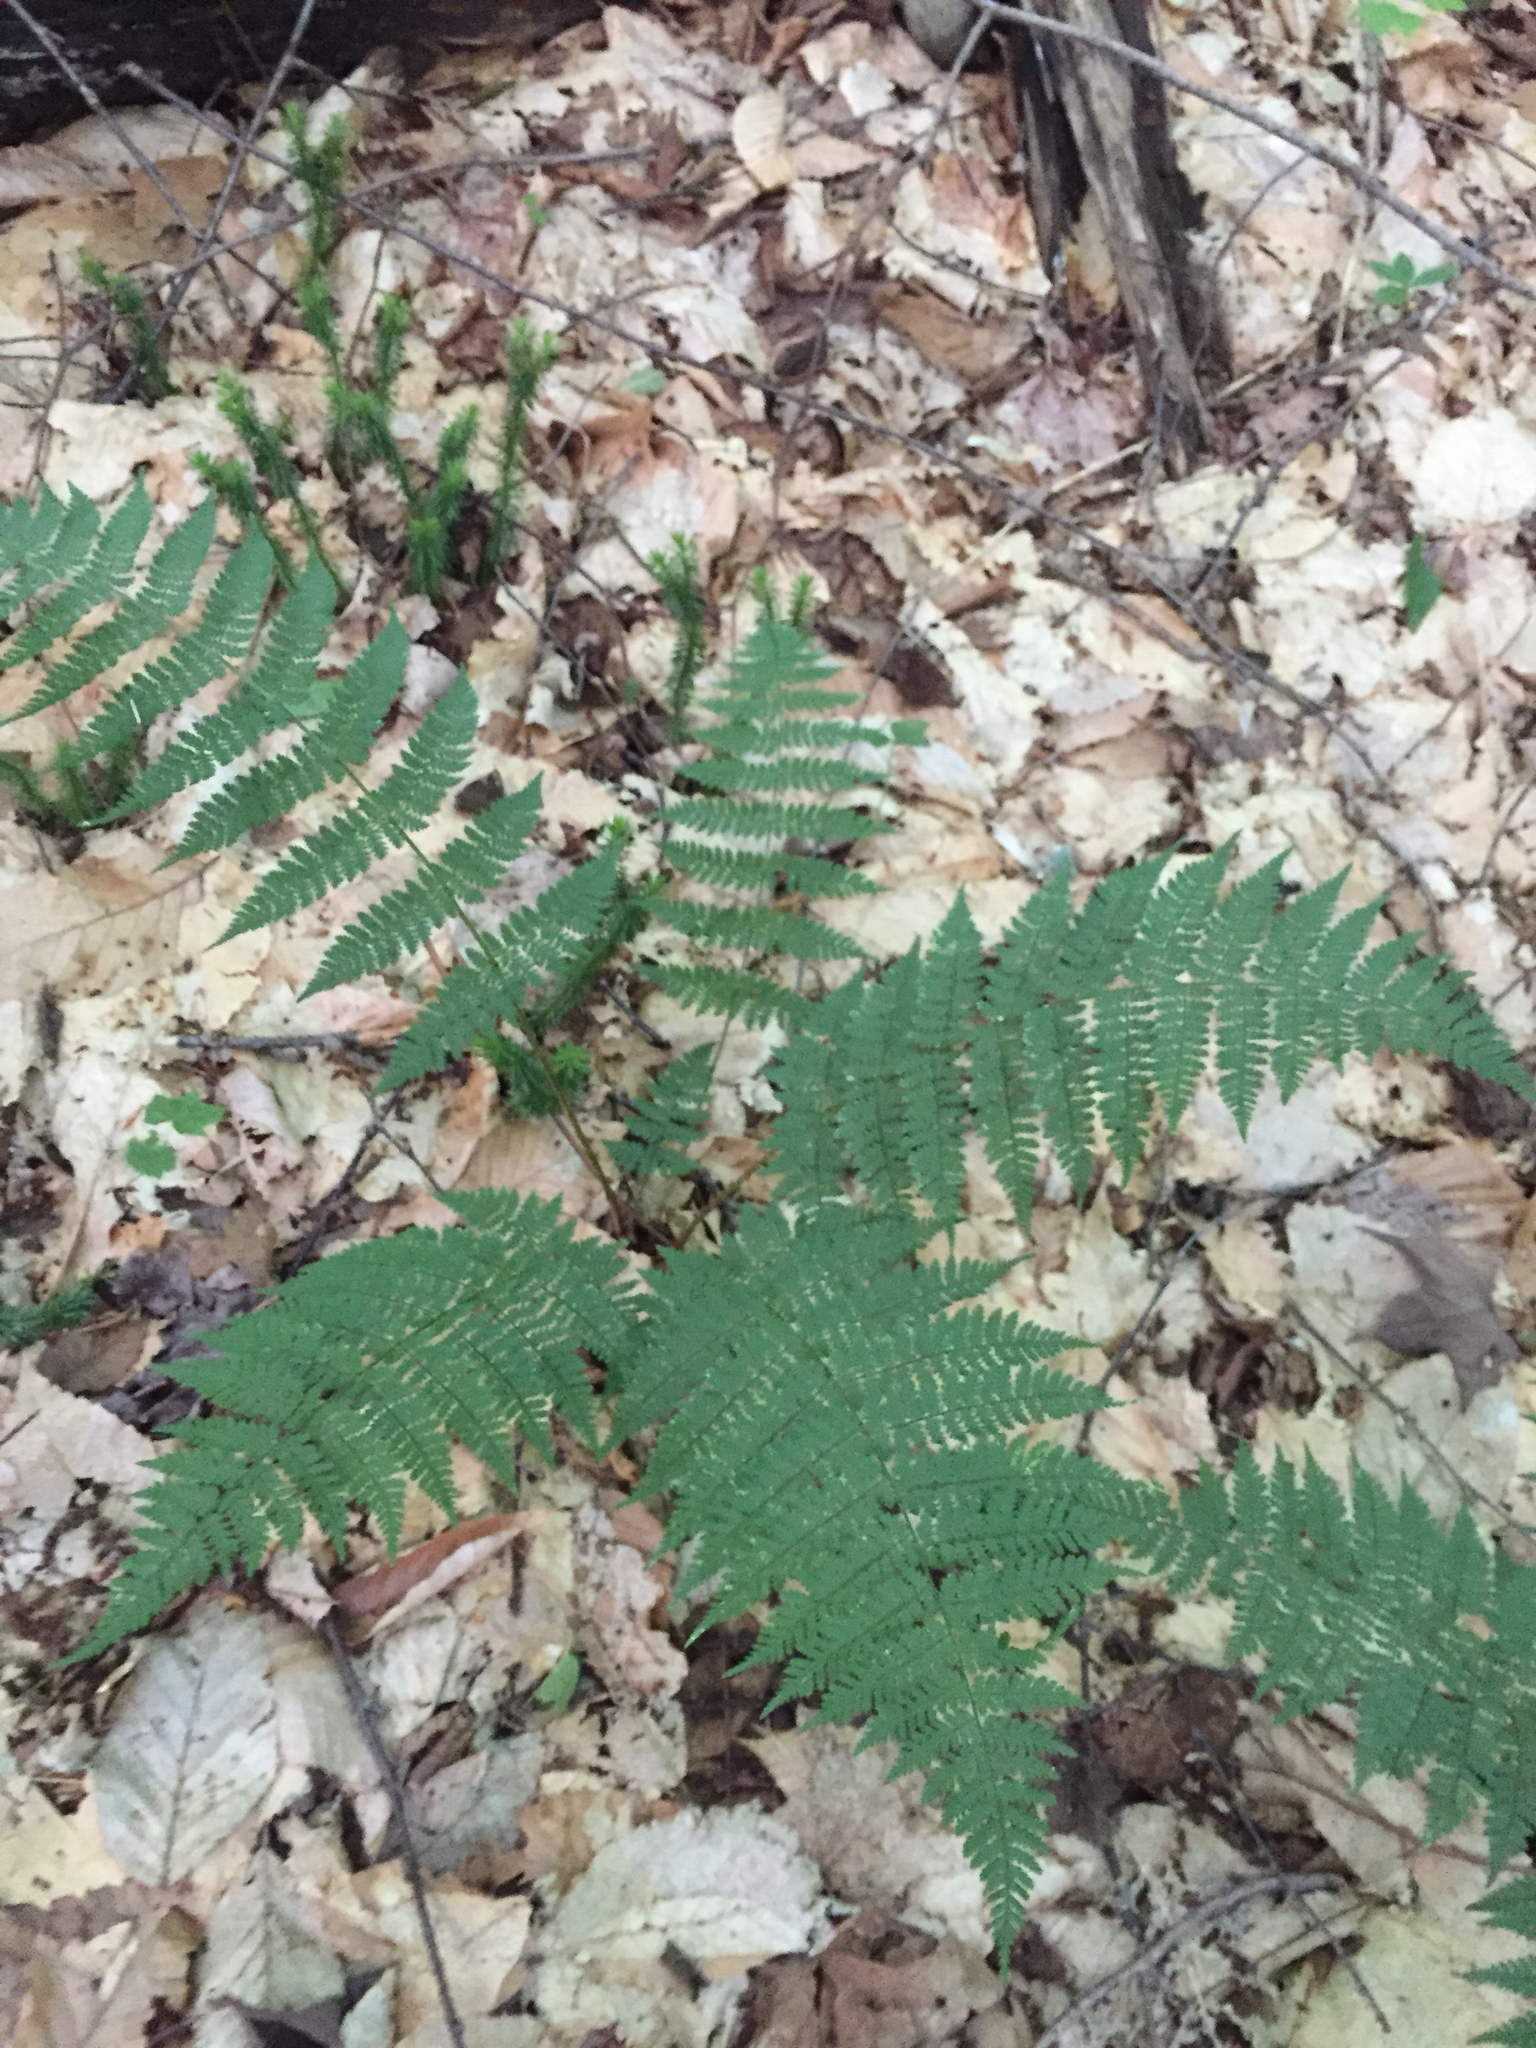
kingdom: Plantae
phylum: Tracheophyta
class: Polypodiopsida
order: Polypodiales
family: Dryopteridaceae
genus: Dryopteris
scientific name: Dryopteris intermedia
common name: Evergreen wood fern
